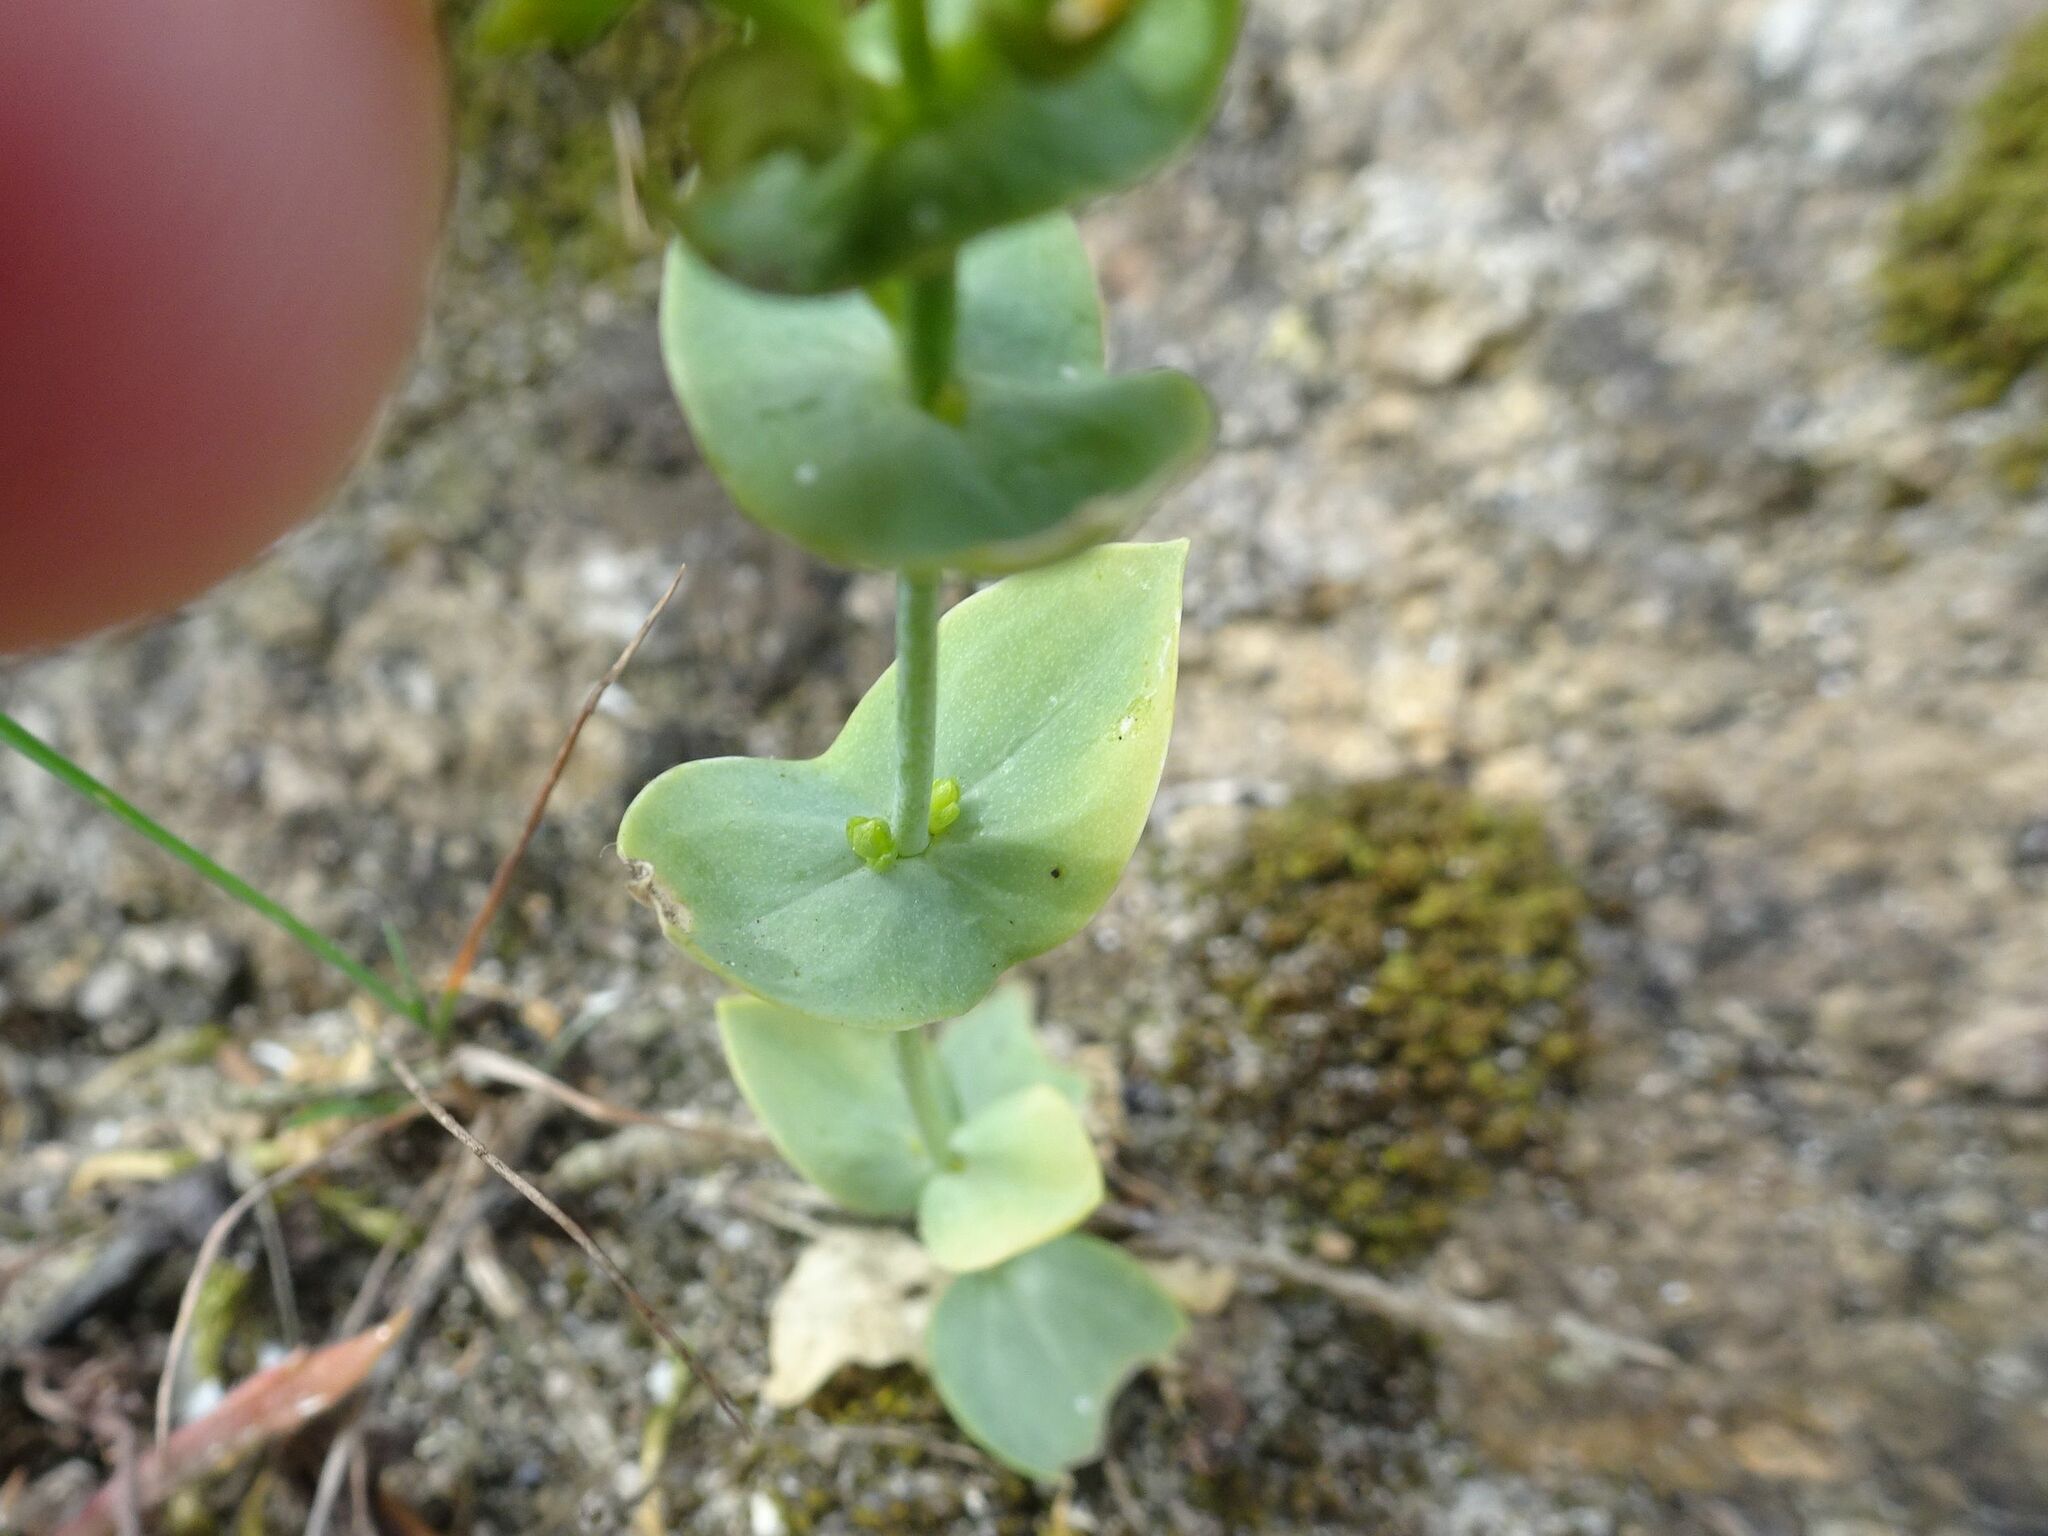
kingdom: Plantae
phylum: Tracheophyta
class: Magnoliopsida
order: Gentianales
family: Gentianaceae
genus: Blackstonia
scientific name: Blackstonia perfoliata
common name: Yellow-wort
